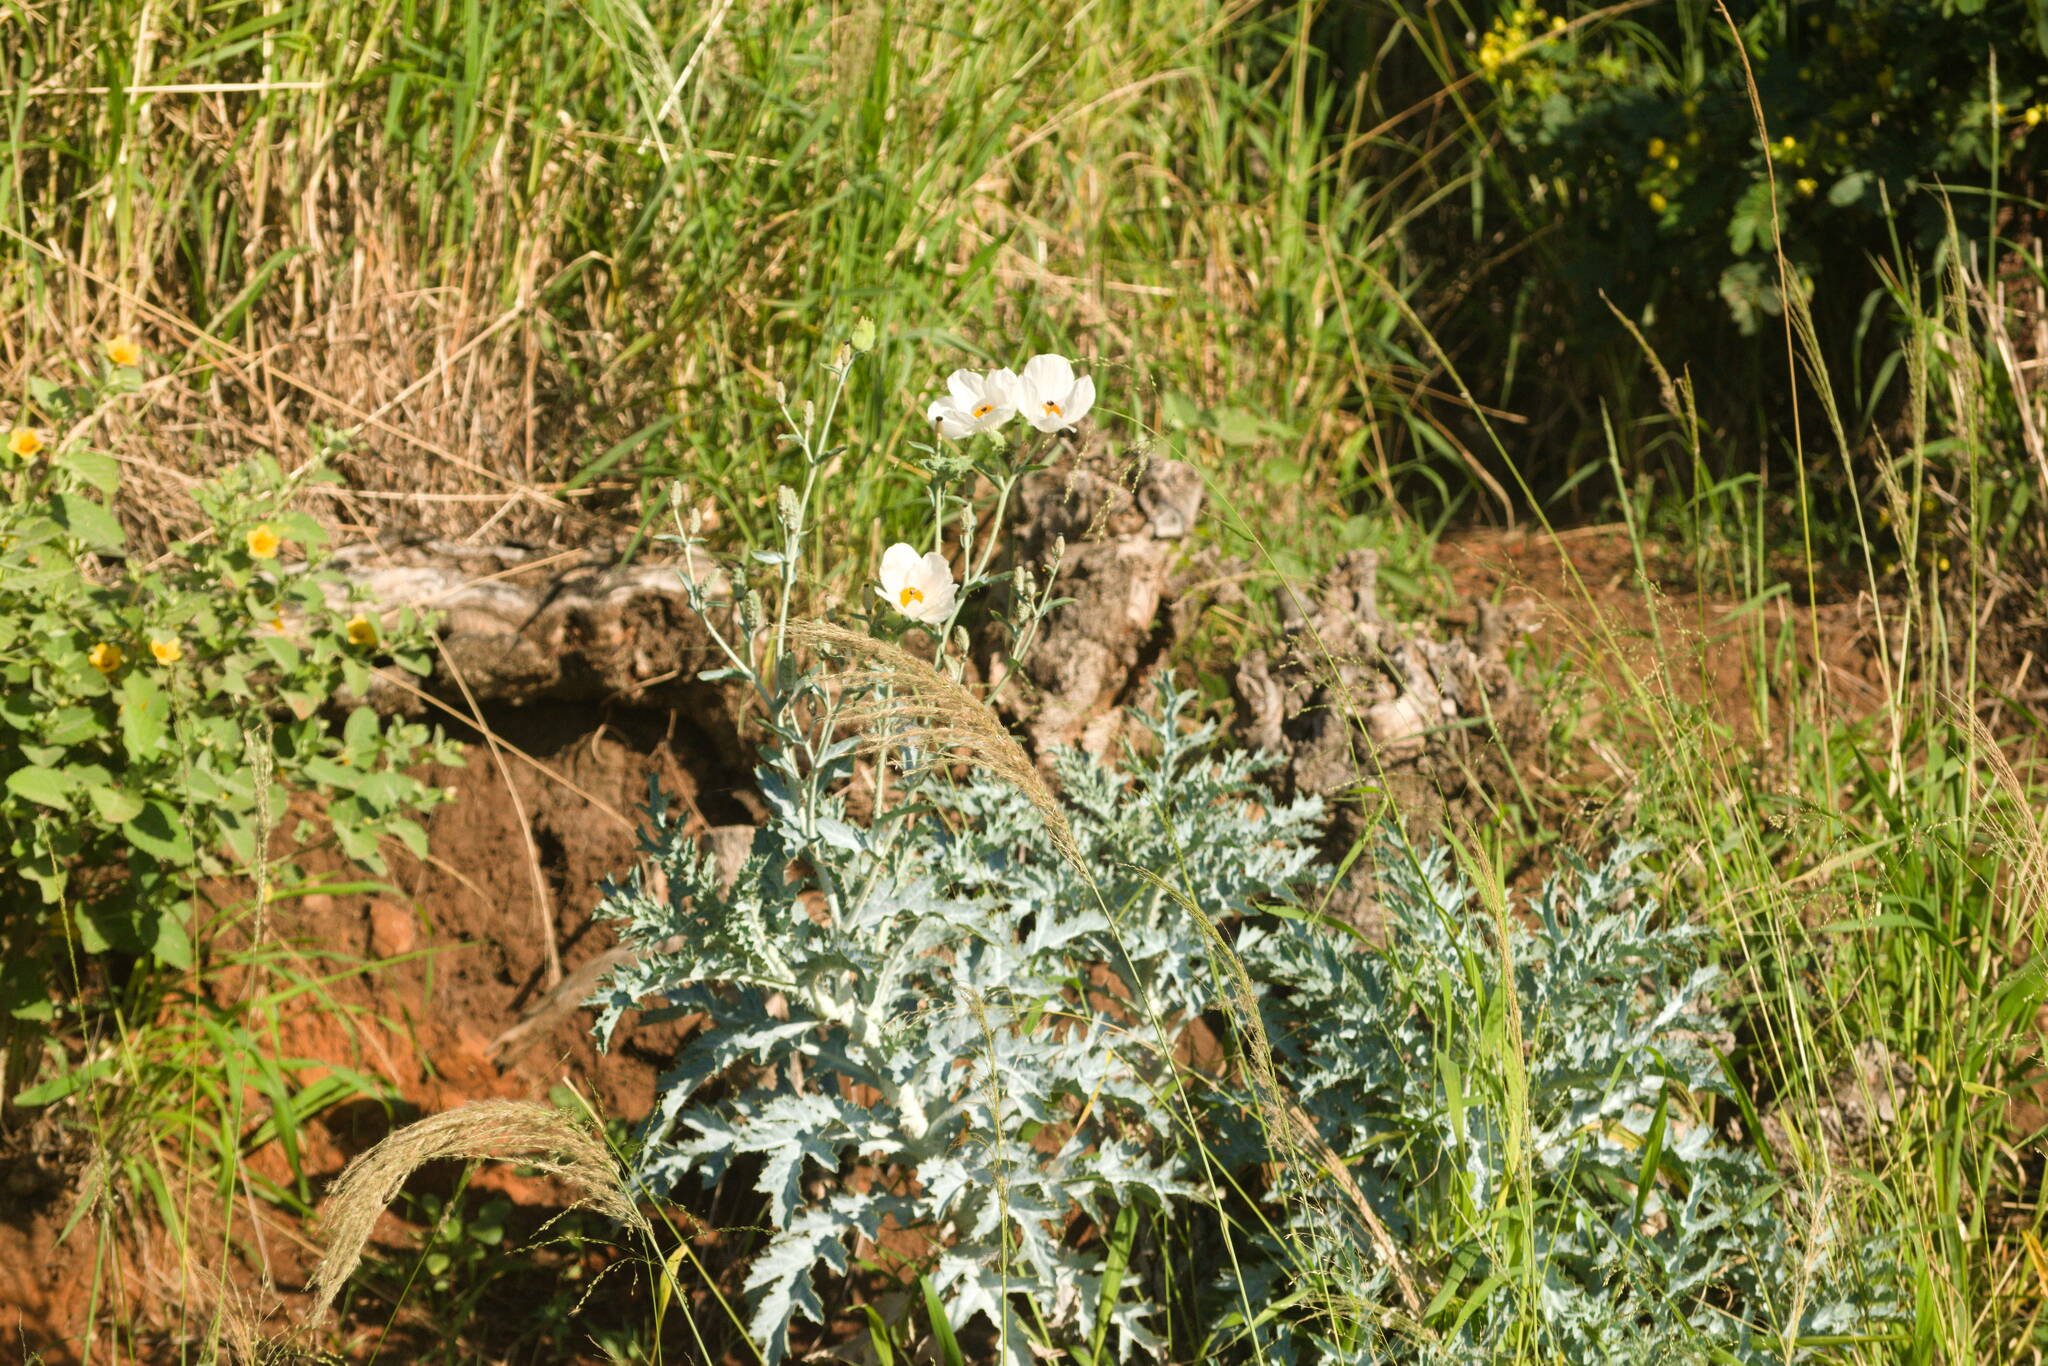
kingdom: Plantae
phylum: Tracheophyta
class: Magnoliopsida
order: Ranunculales
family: Papaveraceae
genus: Argemone
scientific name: Argemone glauca
